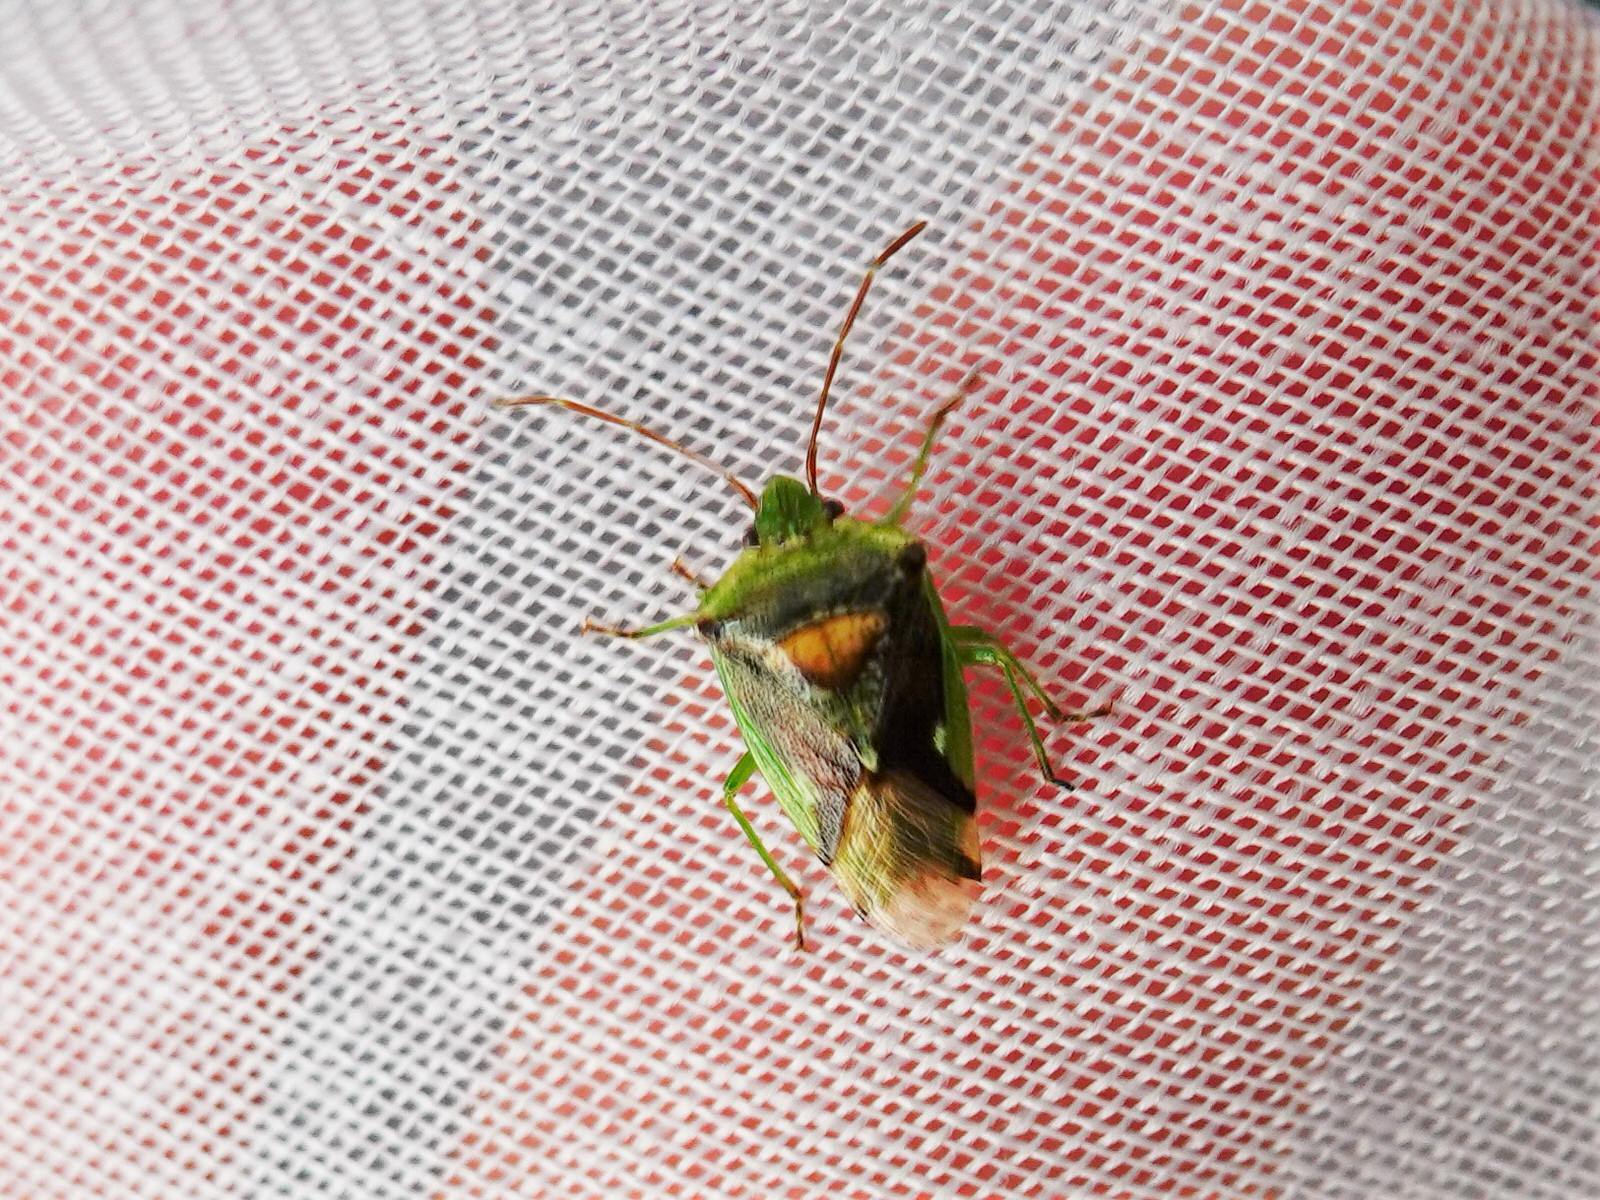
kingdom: Animalia
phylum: Arthropoda
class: Insecta
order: Hemiptera
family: Acanthosomatidae
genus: Oncacontias
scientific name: Oncacontias vittatus
